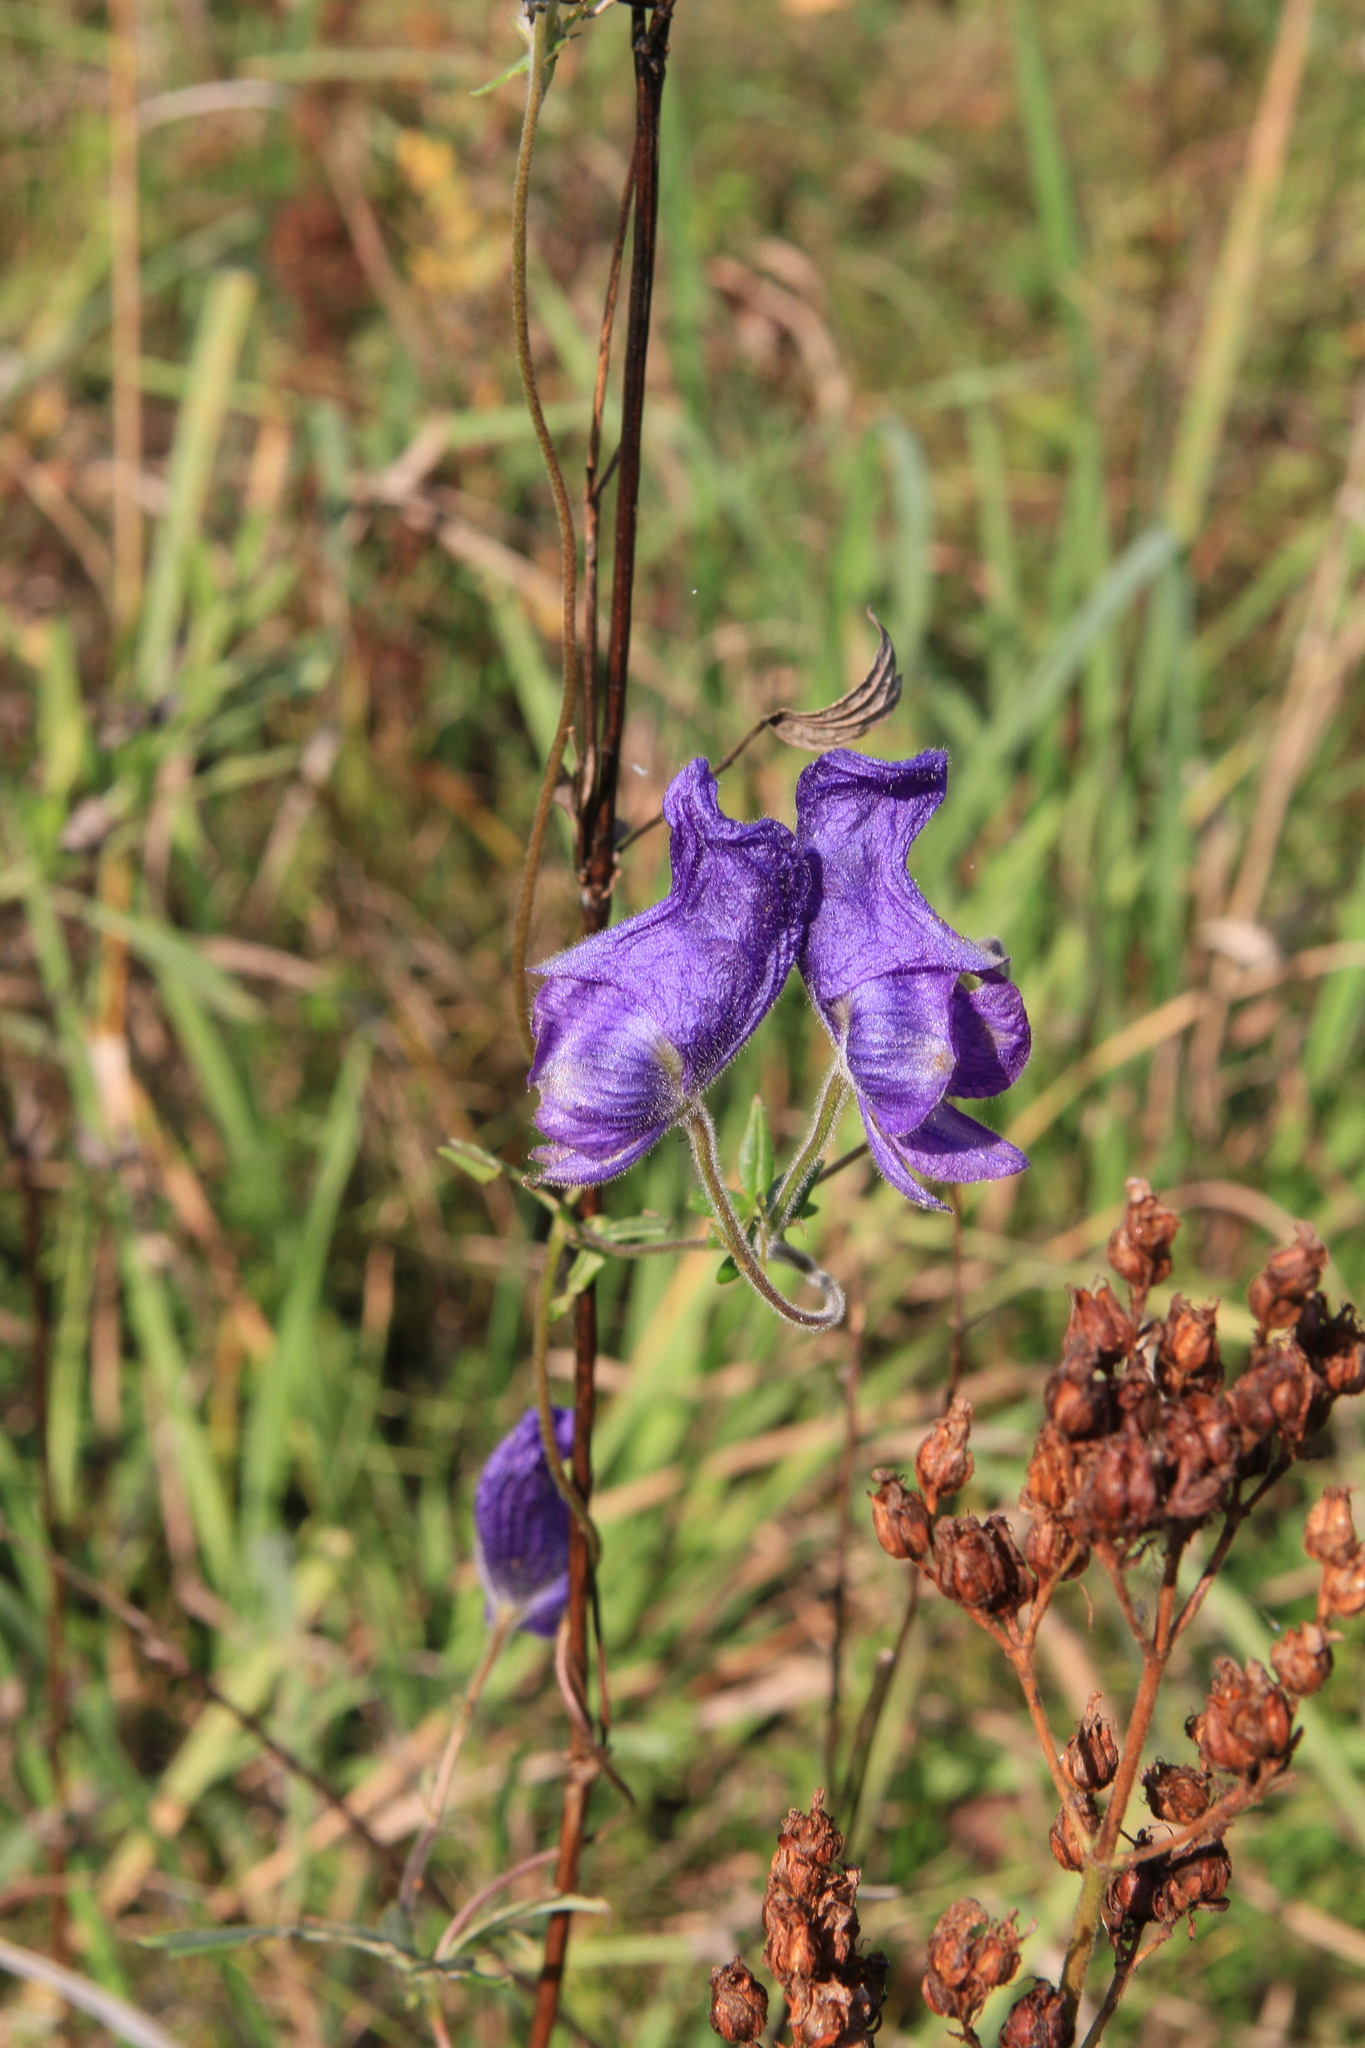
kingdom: Plantae
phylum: Tracheophyta
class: Magnoliopsida
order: Ranunculales
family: Ranunculaceae
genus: Aconitum
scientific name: Aconitum volubile
